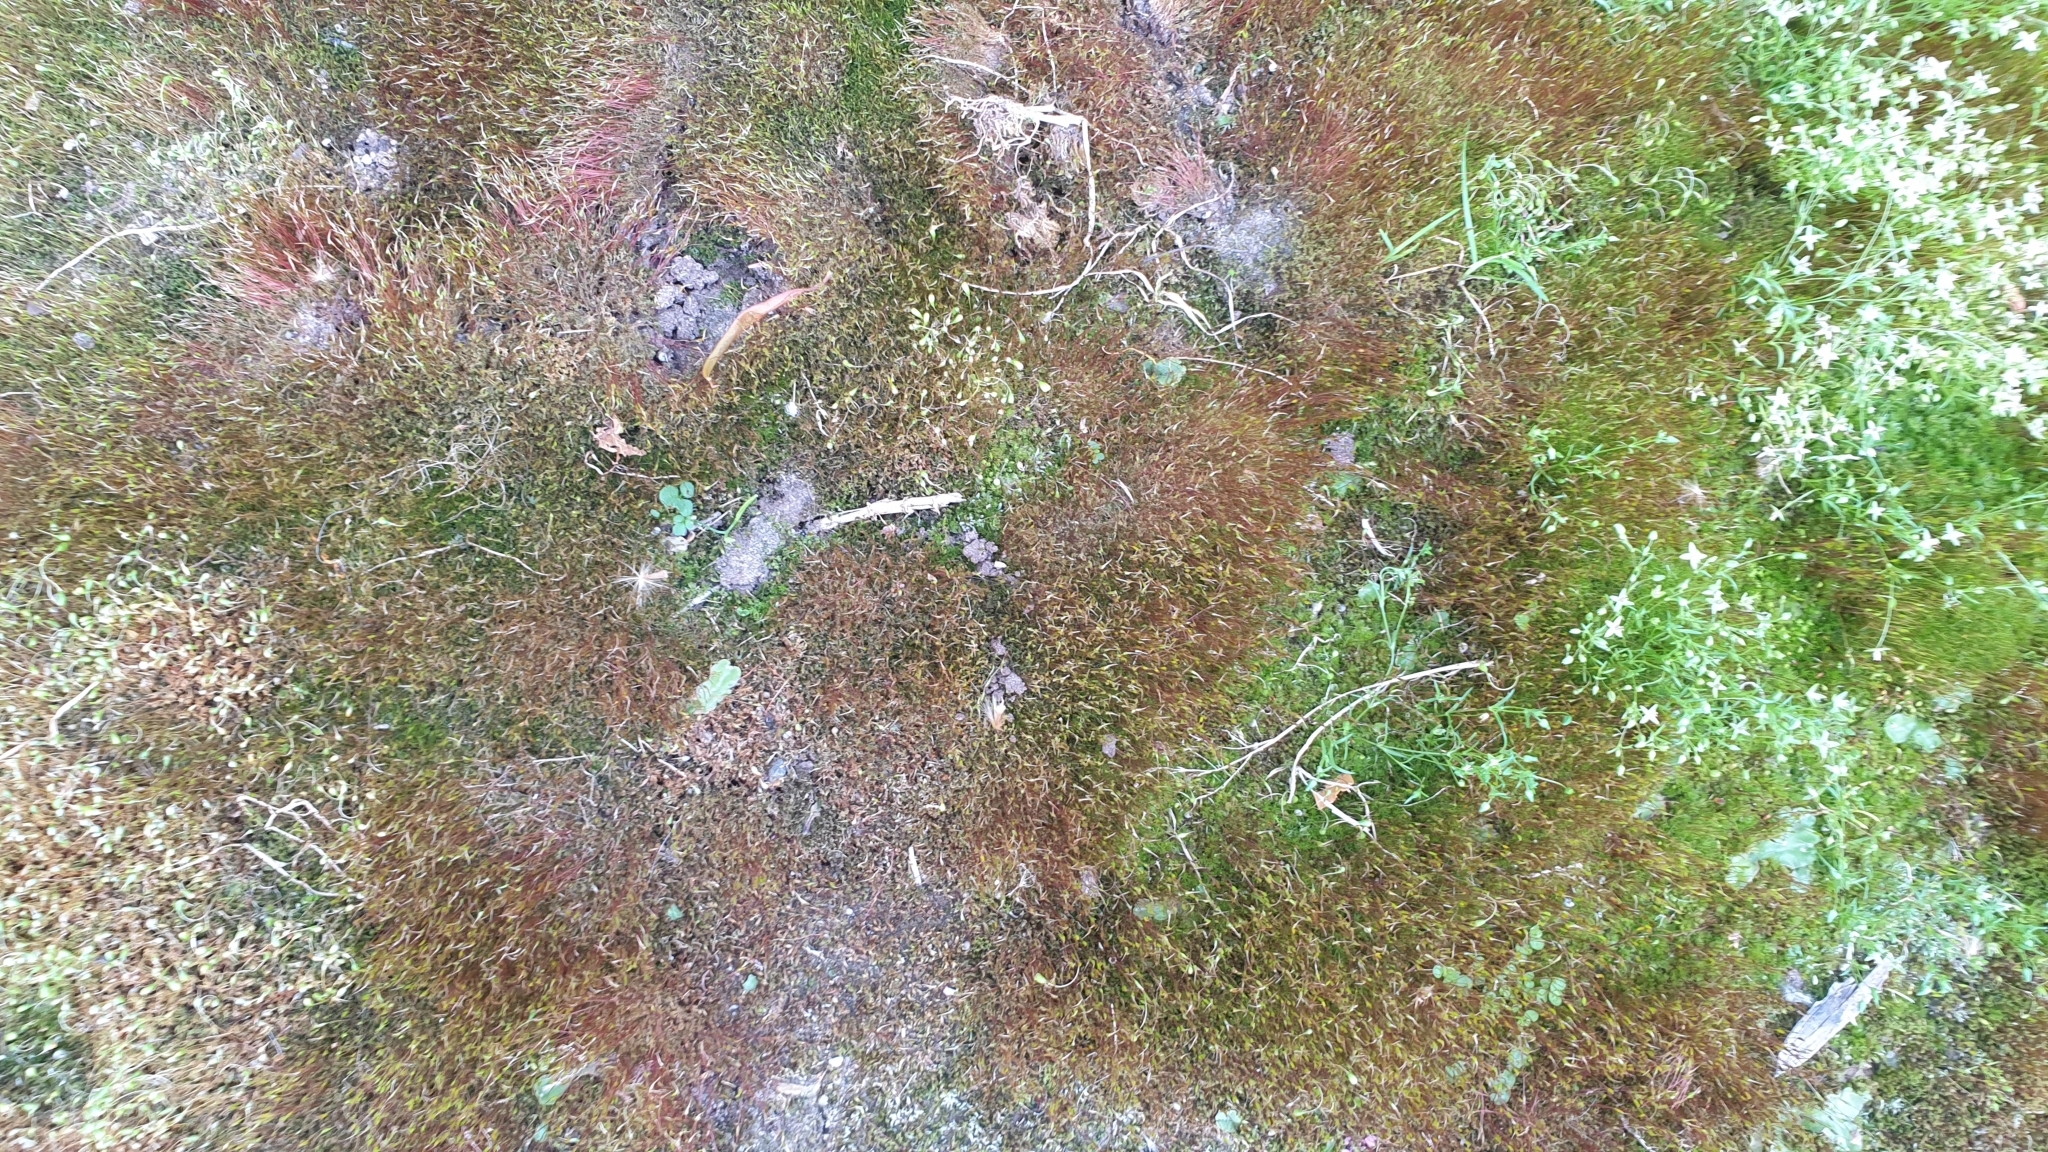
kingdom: Plantae
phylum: Bryophyta
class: Bryopsida
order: Dicranales
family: Ditrichaceae
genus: Ceratodon
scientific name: Ceratodon purpureus
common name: Redshank
